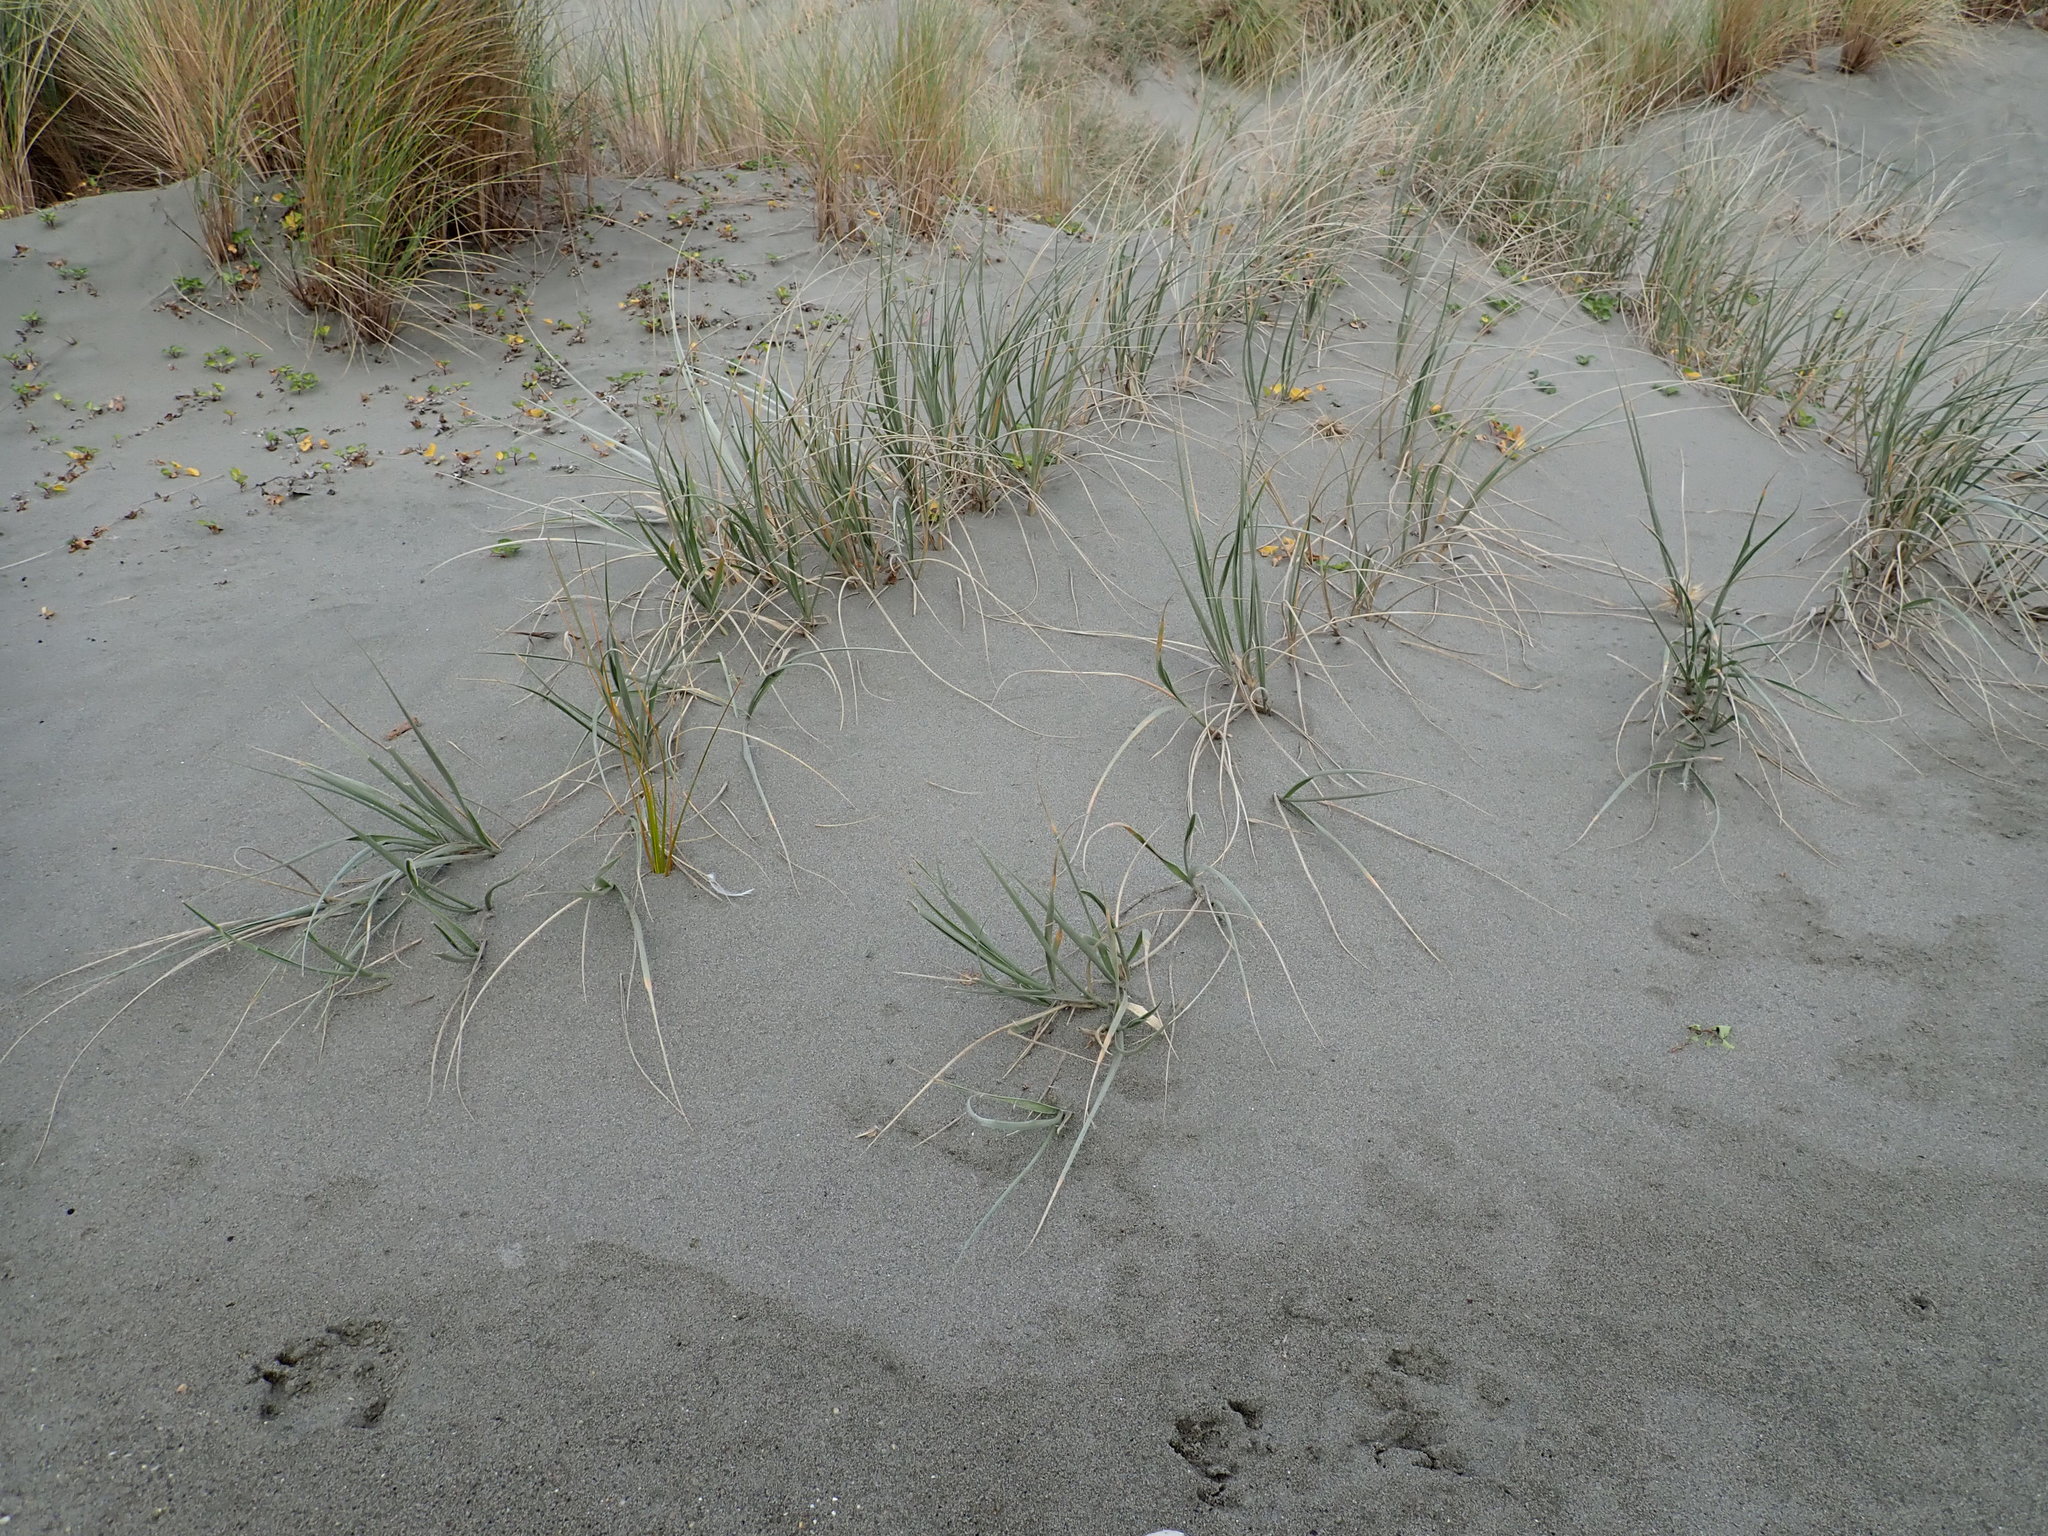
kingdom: Plantae
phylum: Tracheophyta
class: Liliopsida
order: Poales
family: Poaceae
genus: Spinifex
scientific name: Spinifex sericeus
